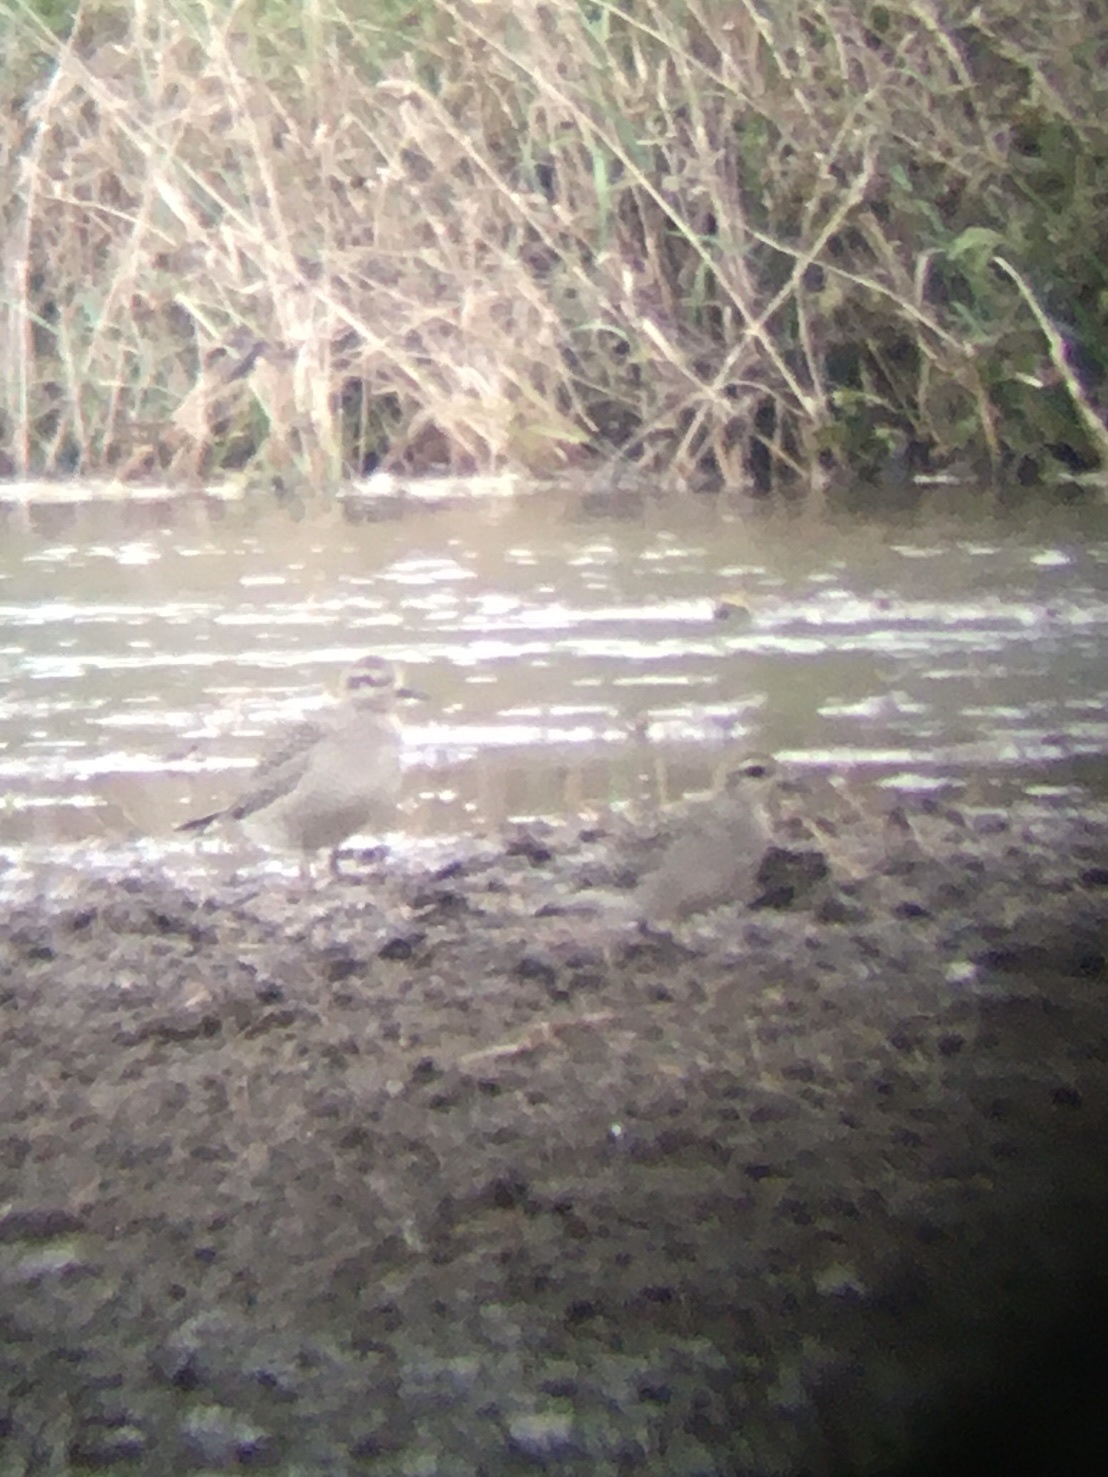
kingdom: Animalia
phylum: Chordata
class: Aves
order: Charadriiformes
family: Charadriidae
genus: Pluvialis
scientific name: Pluvialis dominica
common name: American golden plover
